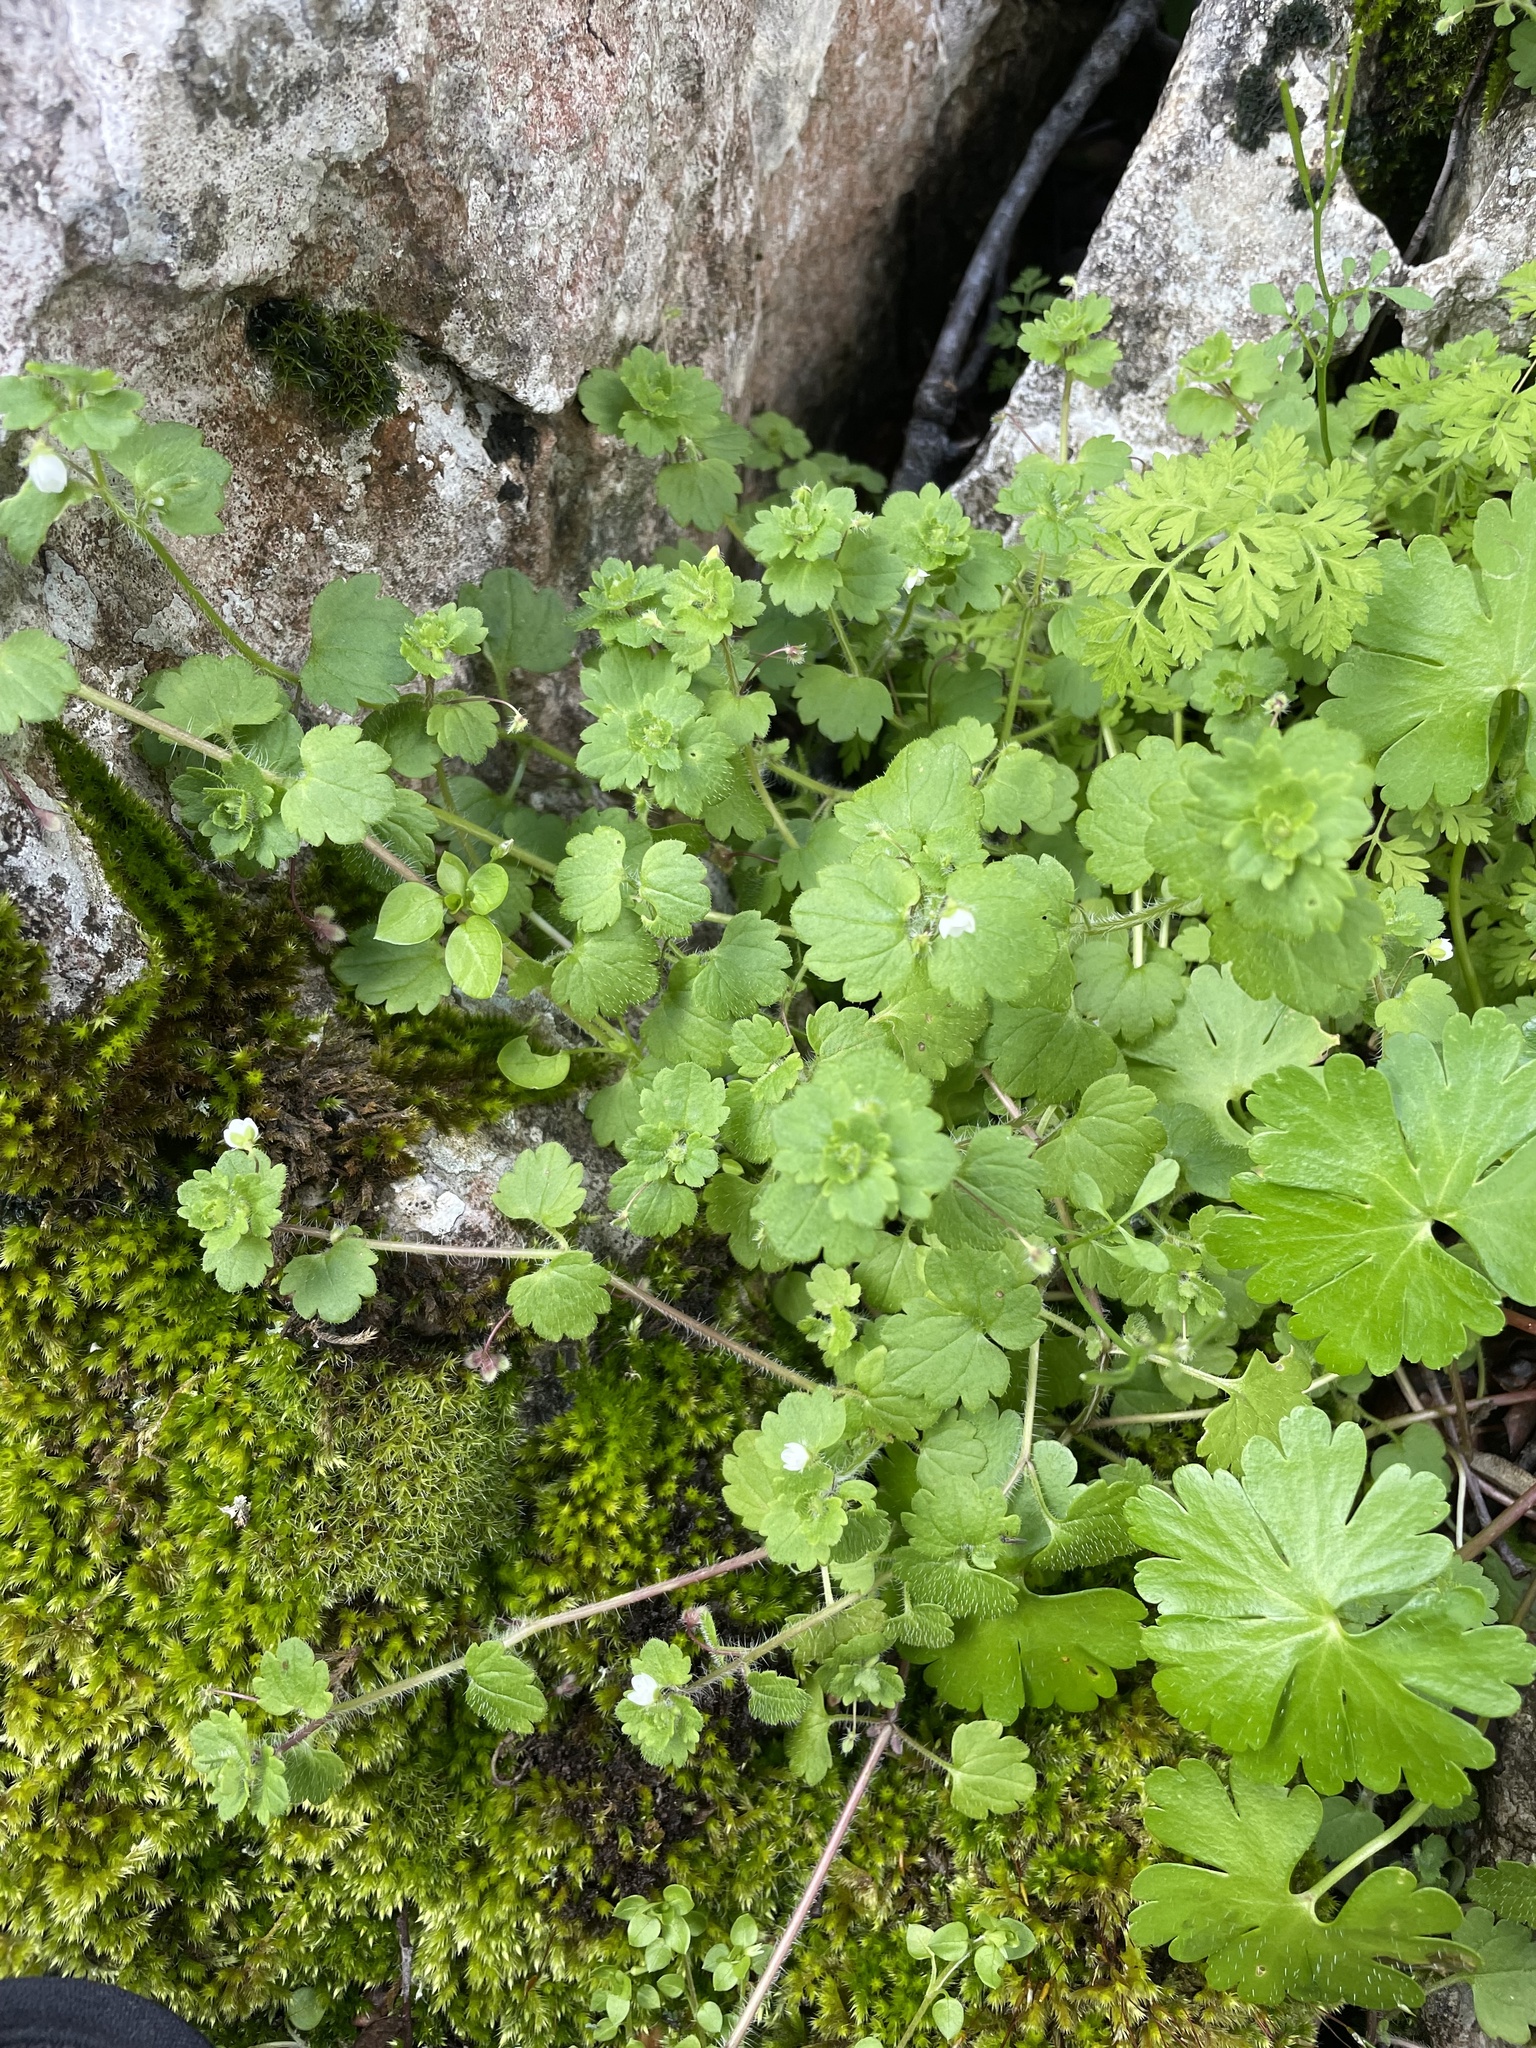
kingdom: Plantae
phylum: Tracheophyta
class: Magnoliopsida
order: Lamiales
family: Plantaginaceae
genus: Veronica
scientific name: Veronica cymbalaria
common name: Pale speedwell
